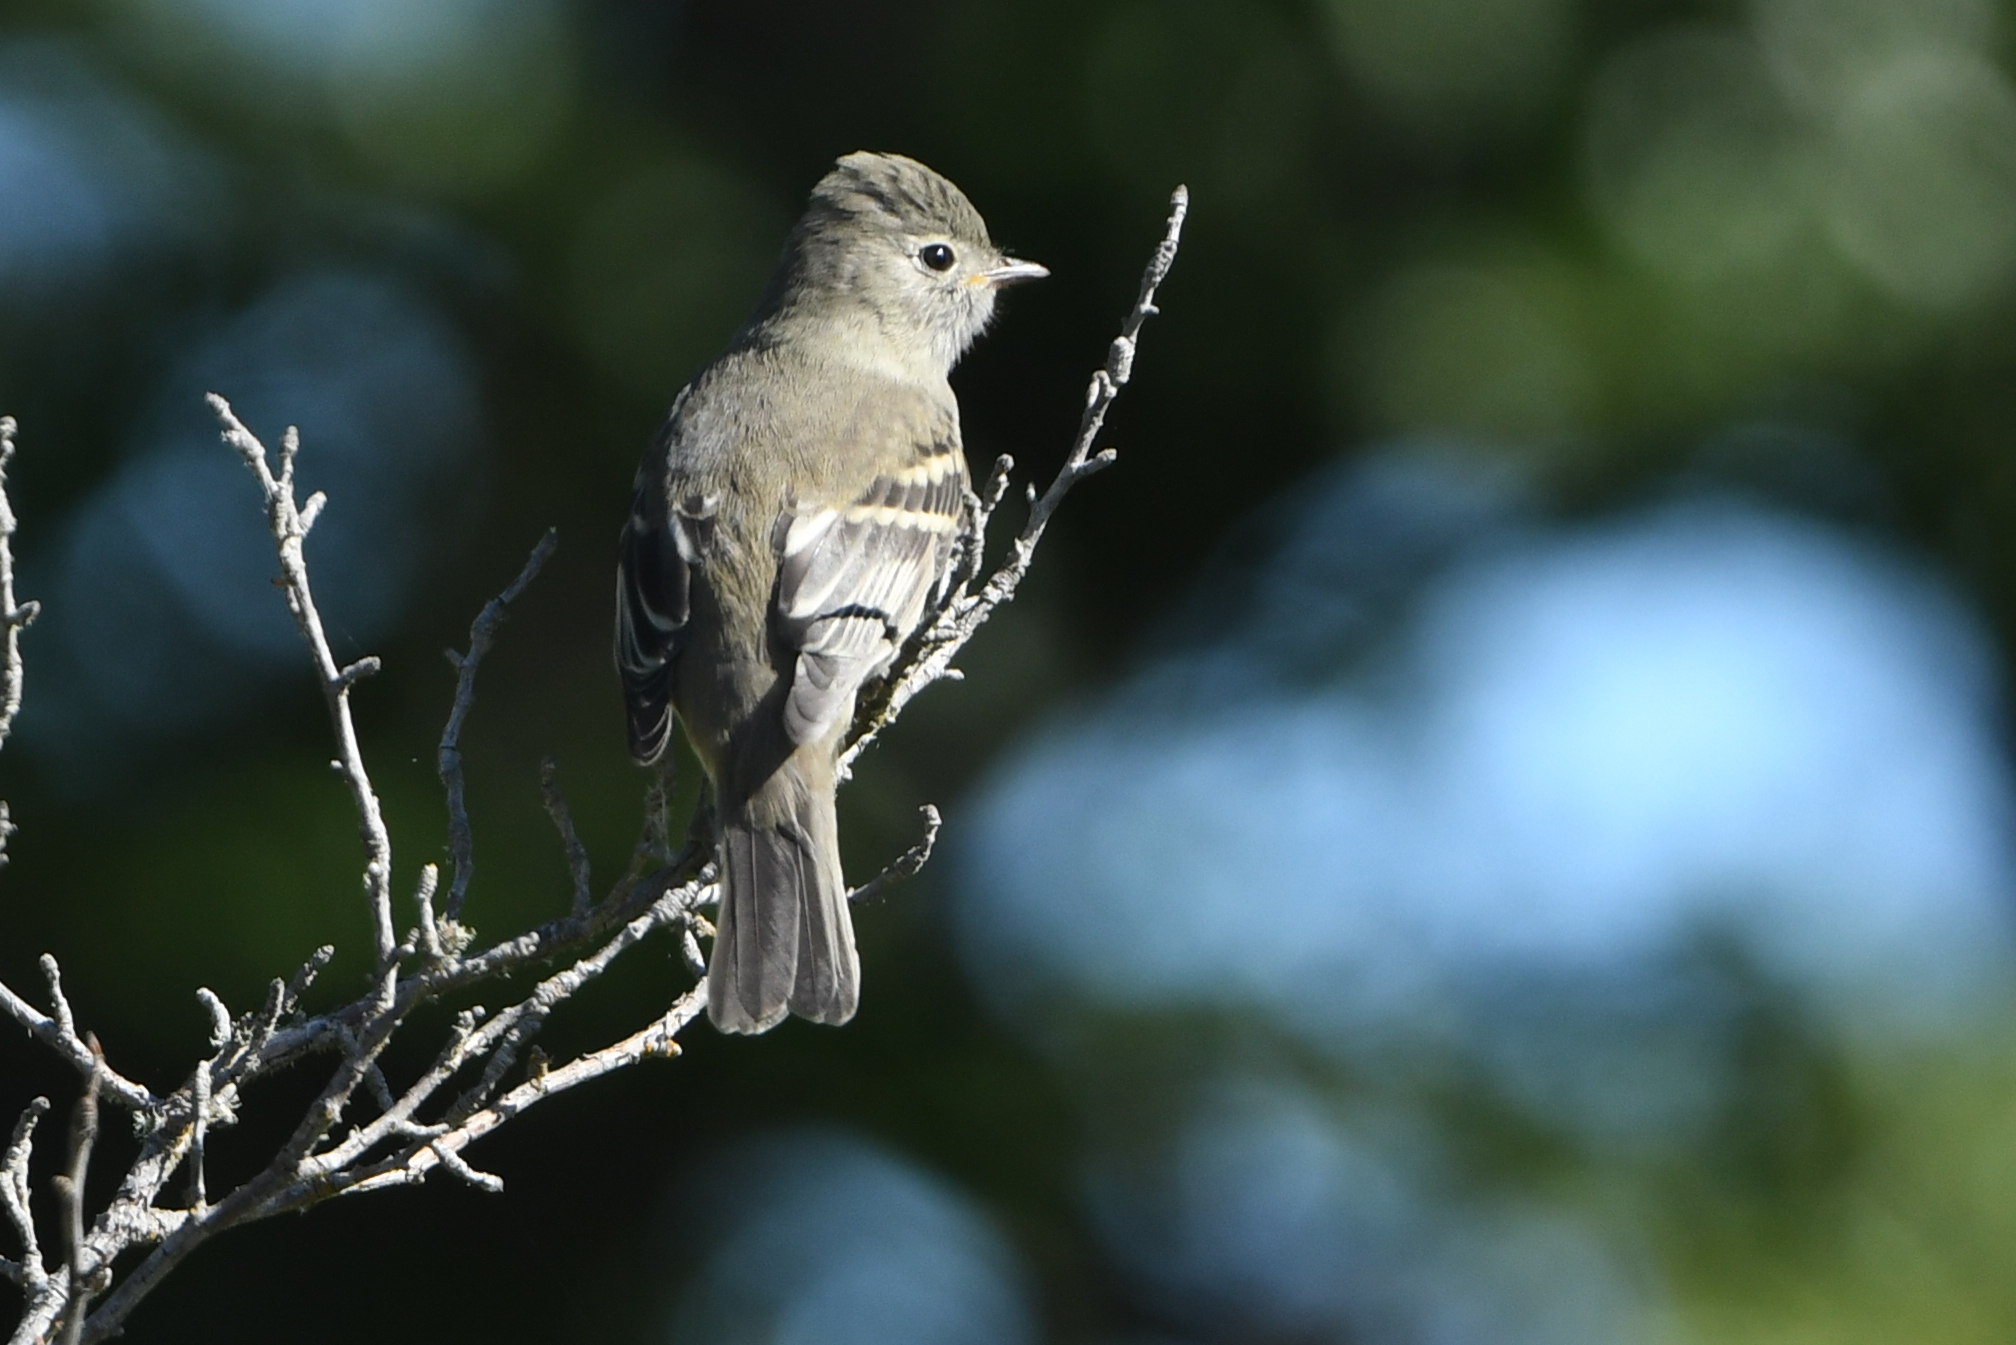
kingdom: Animalia
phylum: Chordata
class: Aves
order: Passeriformes
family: Tyrannidae
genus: Elaenia
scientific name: Elaenia albiceps
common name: White-crested elaenia
